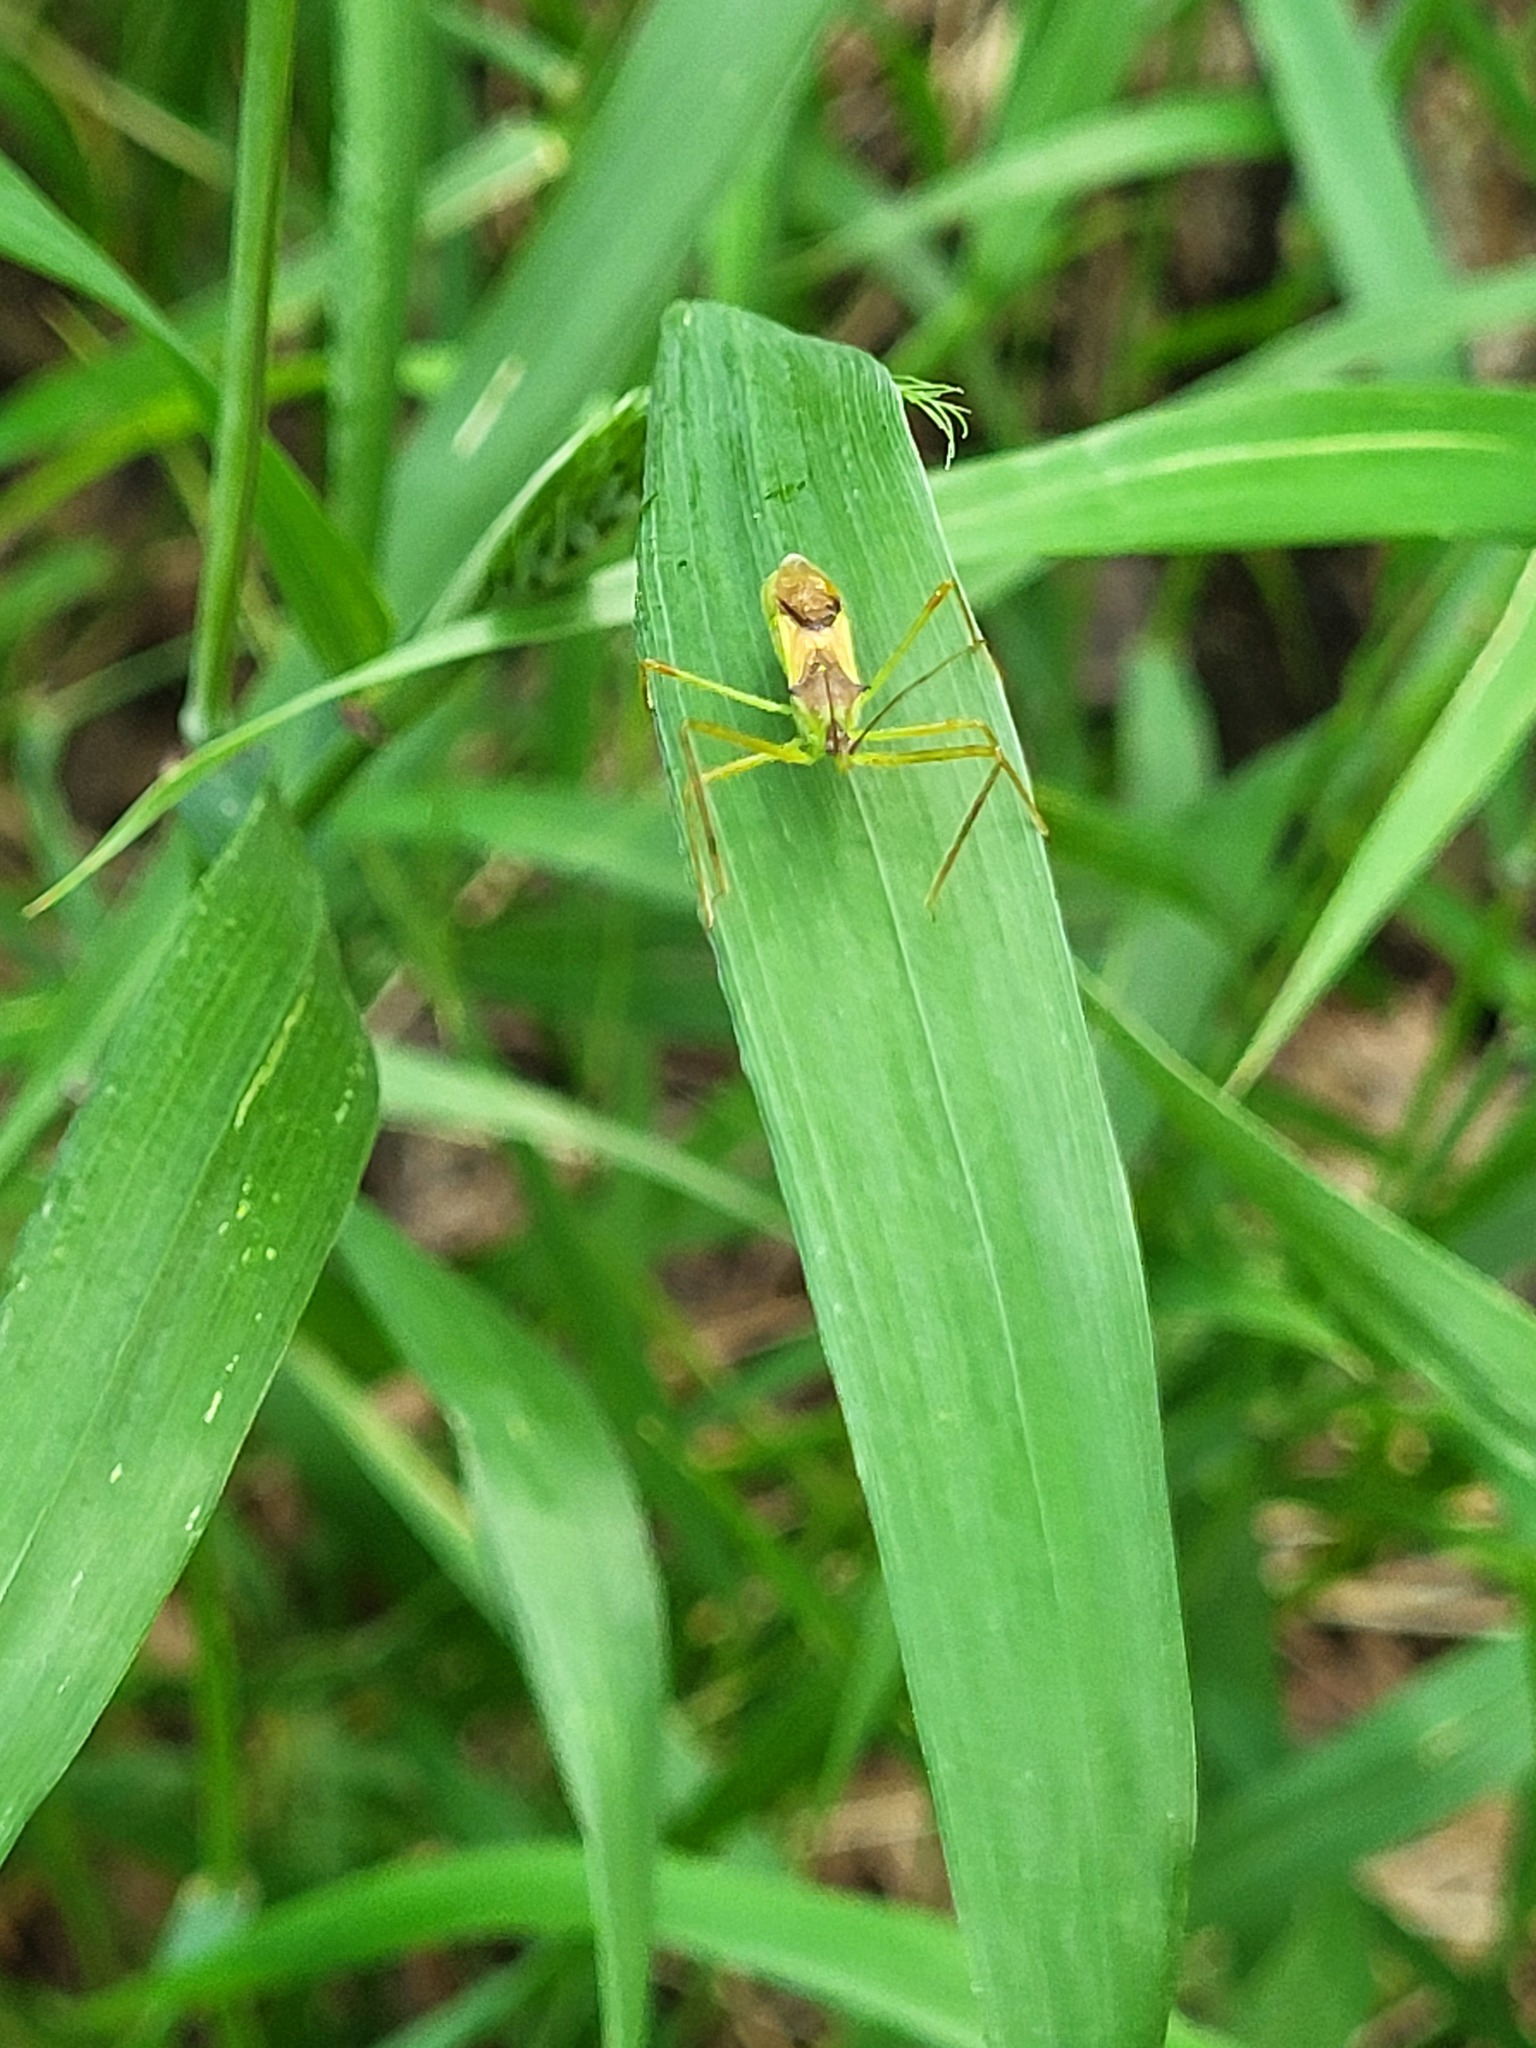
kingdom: Animalia
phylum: Arthropoda
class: Insecta
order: Hemiptera
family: Reduviidae
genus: Zelus
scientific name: Zelus luridus
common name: Pale green assassin bug
